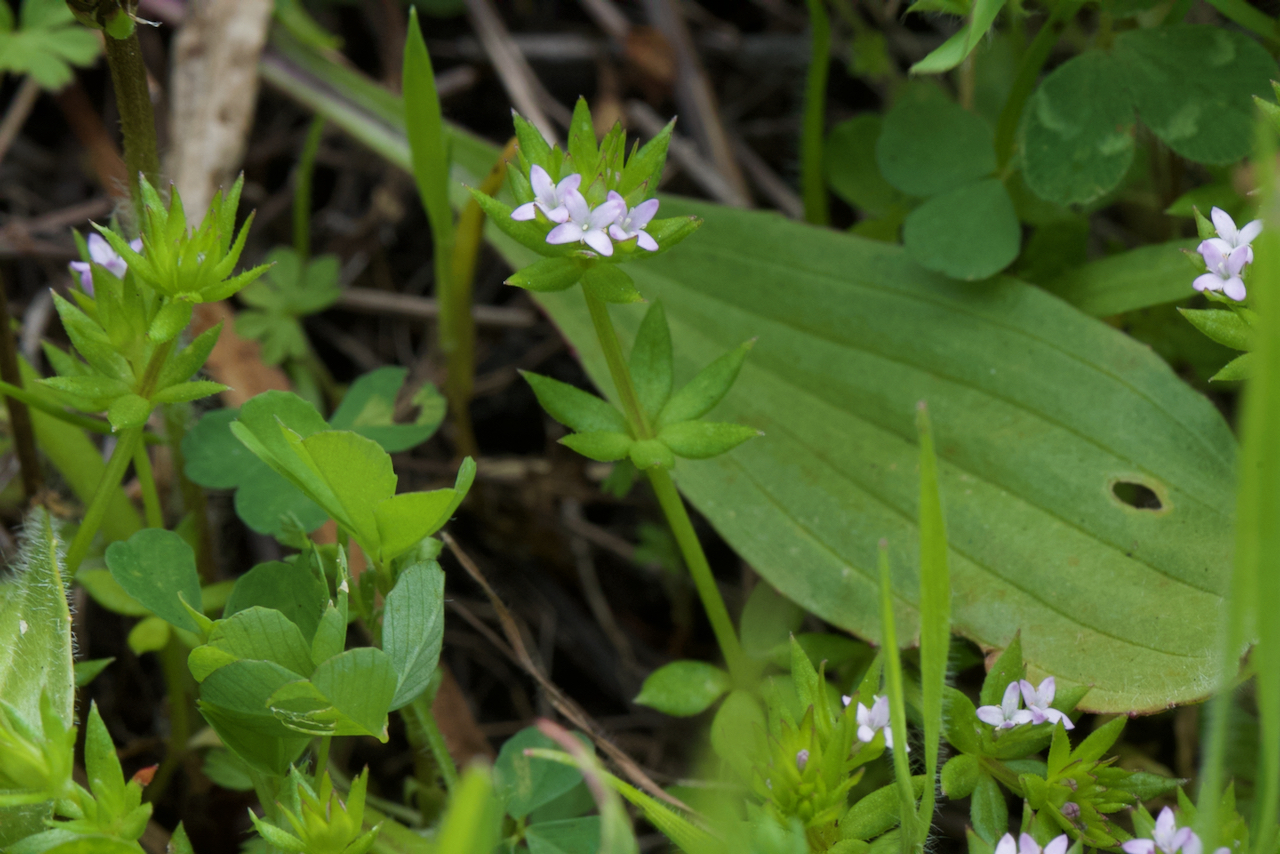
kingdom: Plantae
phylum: Tracheophyta
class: Magnoliopsida
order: Gentianales
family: Rubiaceae
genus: Sherardia
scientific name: Sherardia arvensis
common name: Field madder
